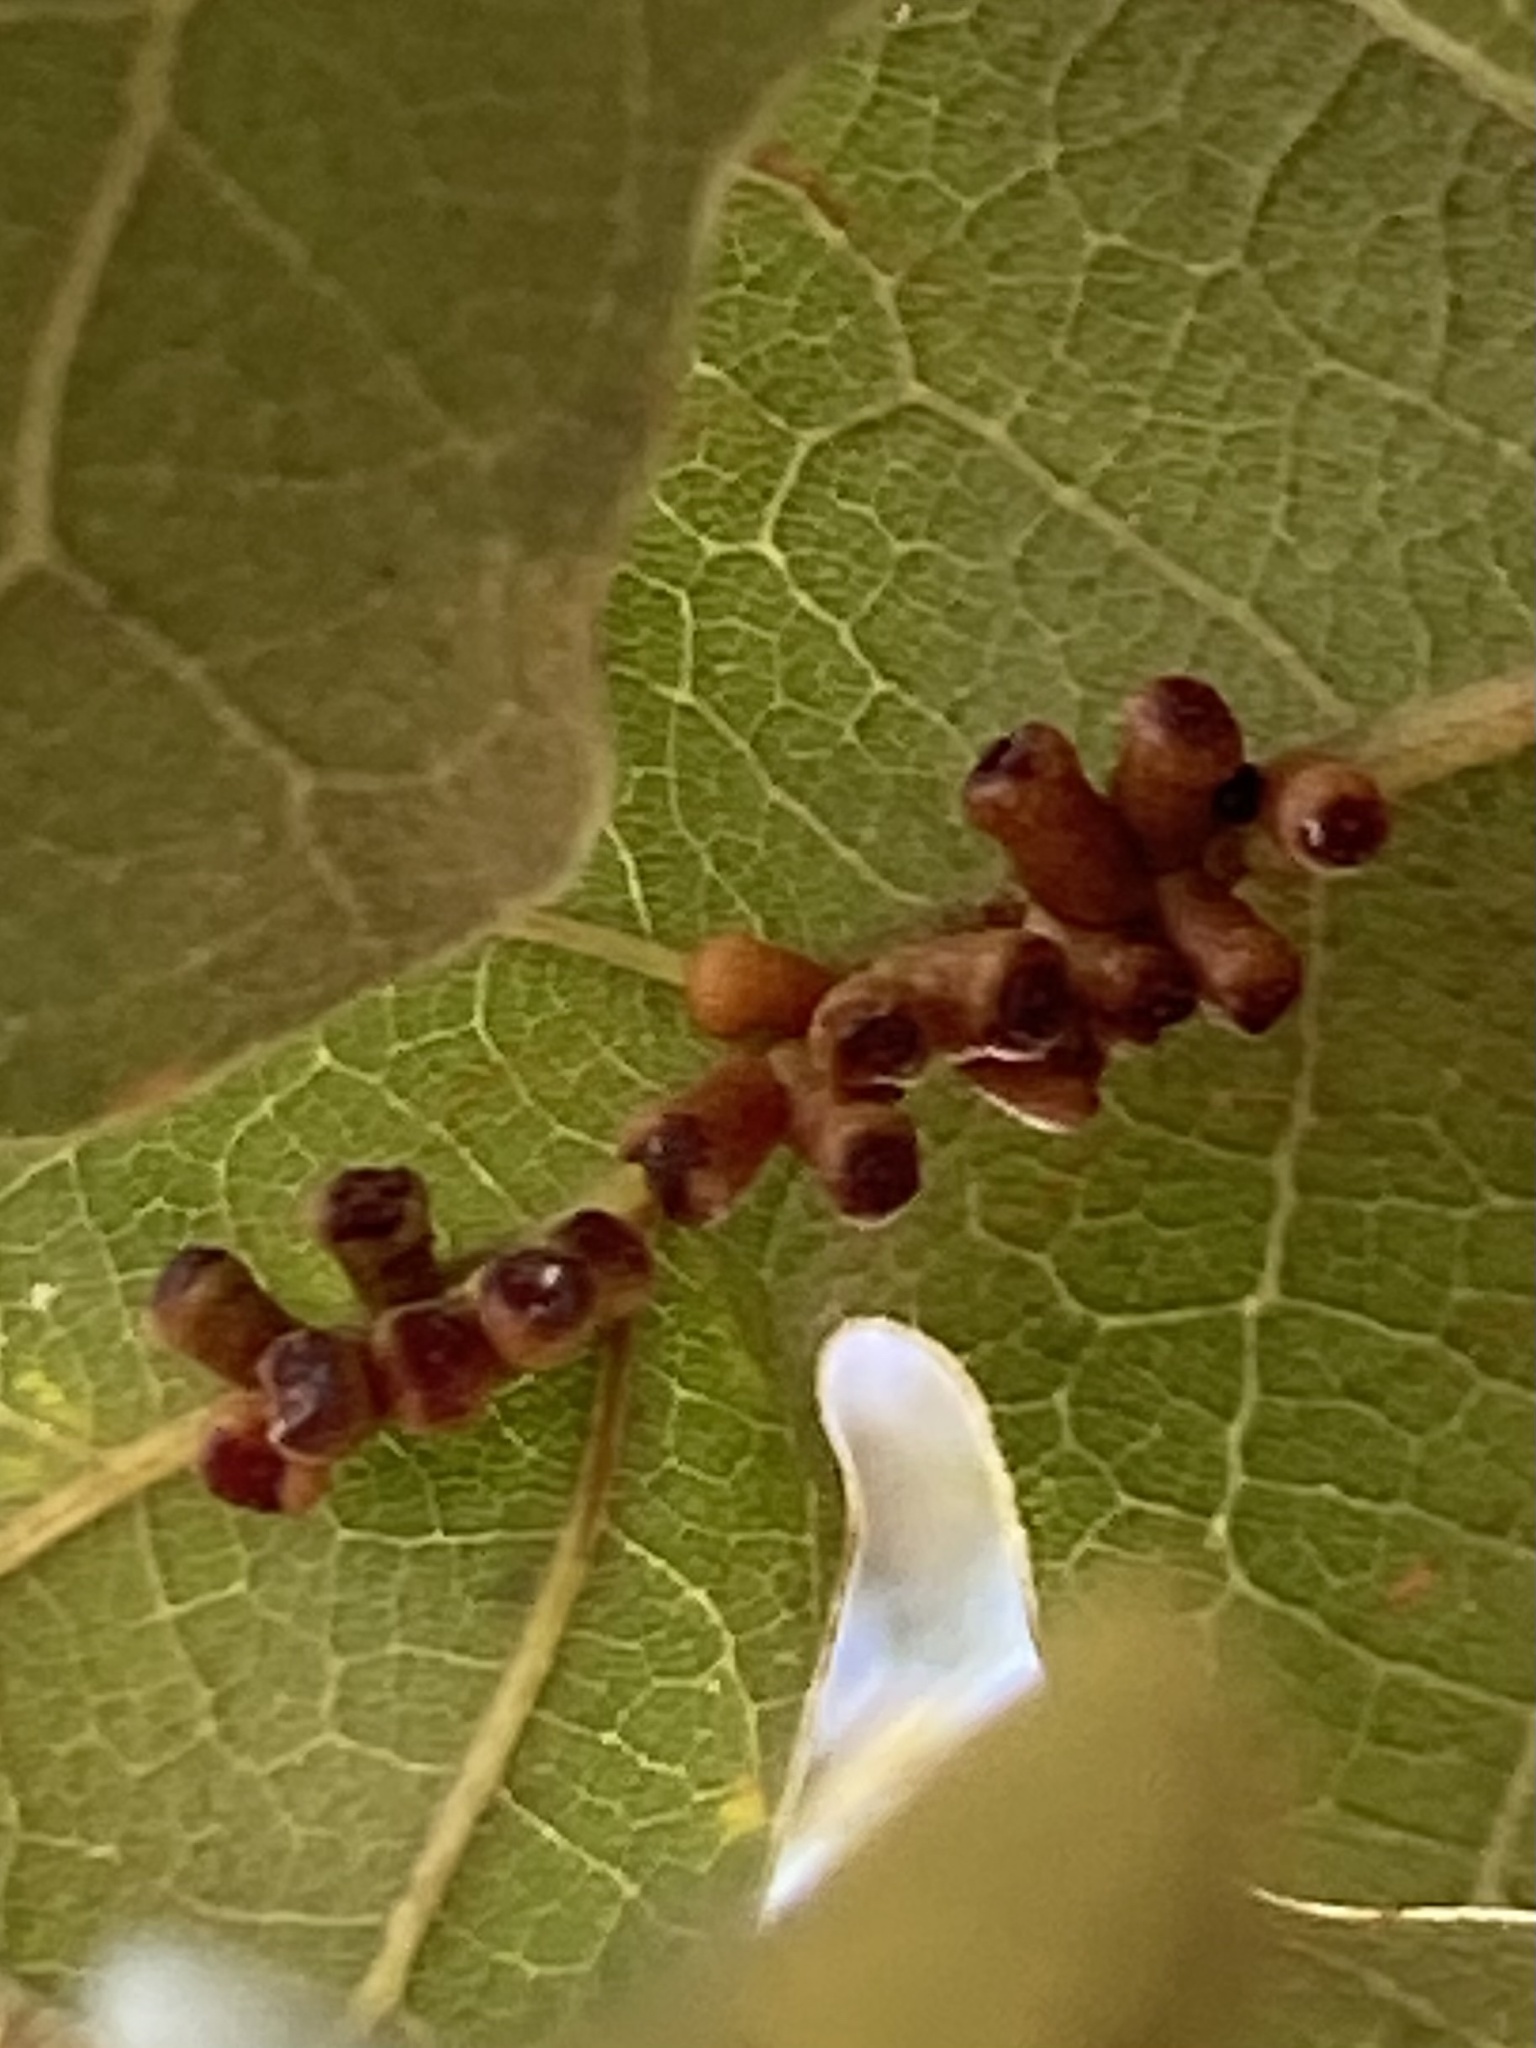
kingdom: Animalia
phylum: Arthropoda
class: Insecta
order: Hymenoptera
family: Cynipidae
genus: Andricus
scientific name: Andricus lustrans
